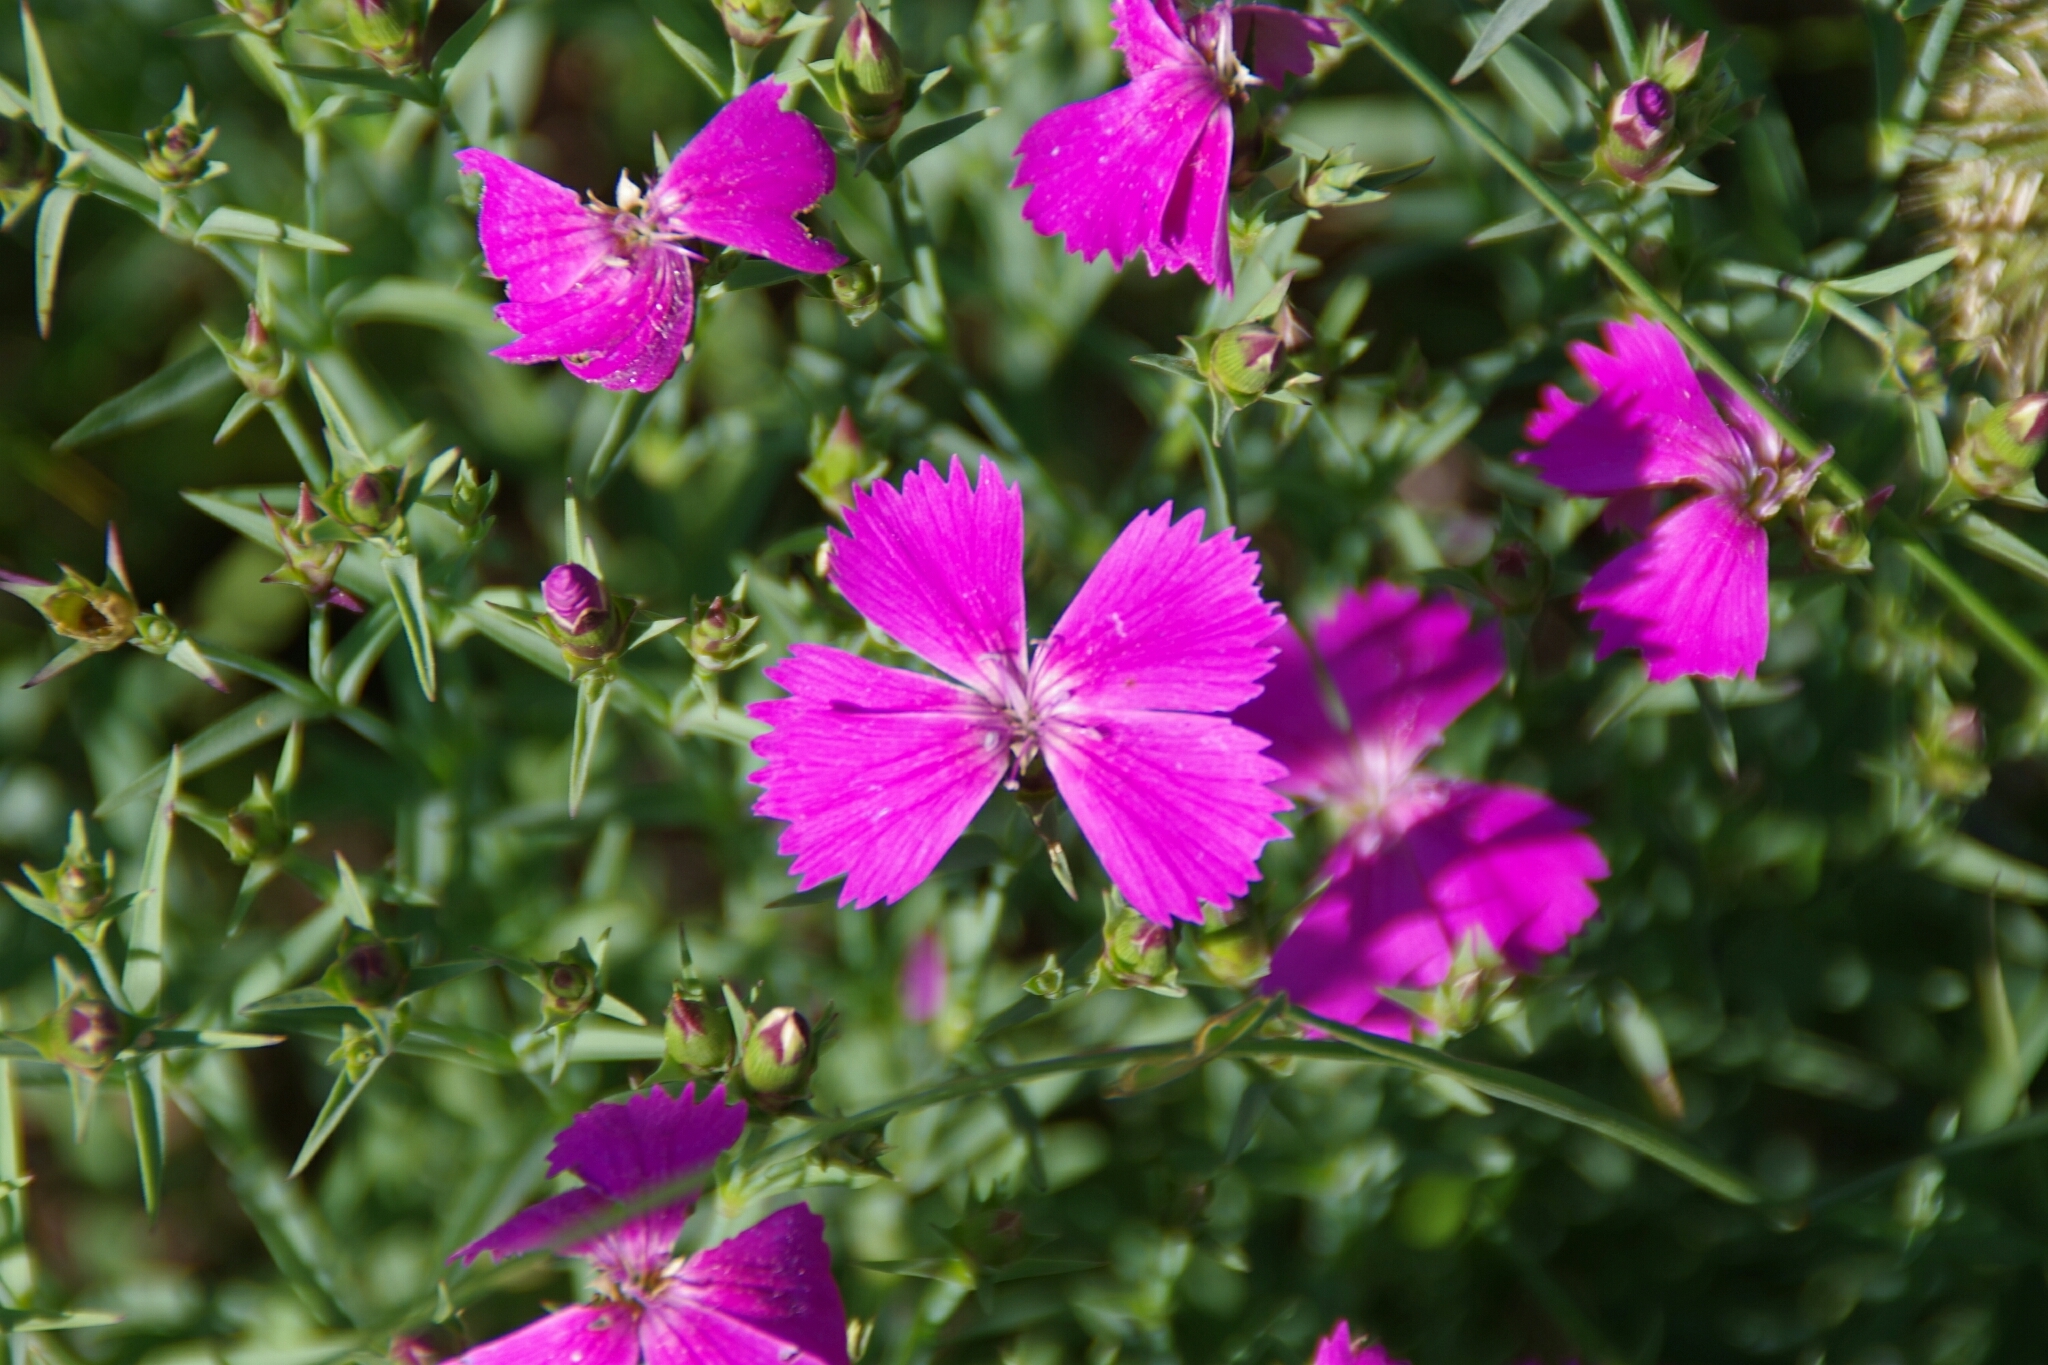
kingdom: Plantae
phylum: Tracheophyta
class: Magnoliopsida
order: Caryophyllales
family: Caryophyllaceae
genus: Dianthus
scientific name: Dianthus chinensis
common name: Rainbow pink
